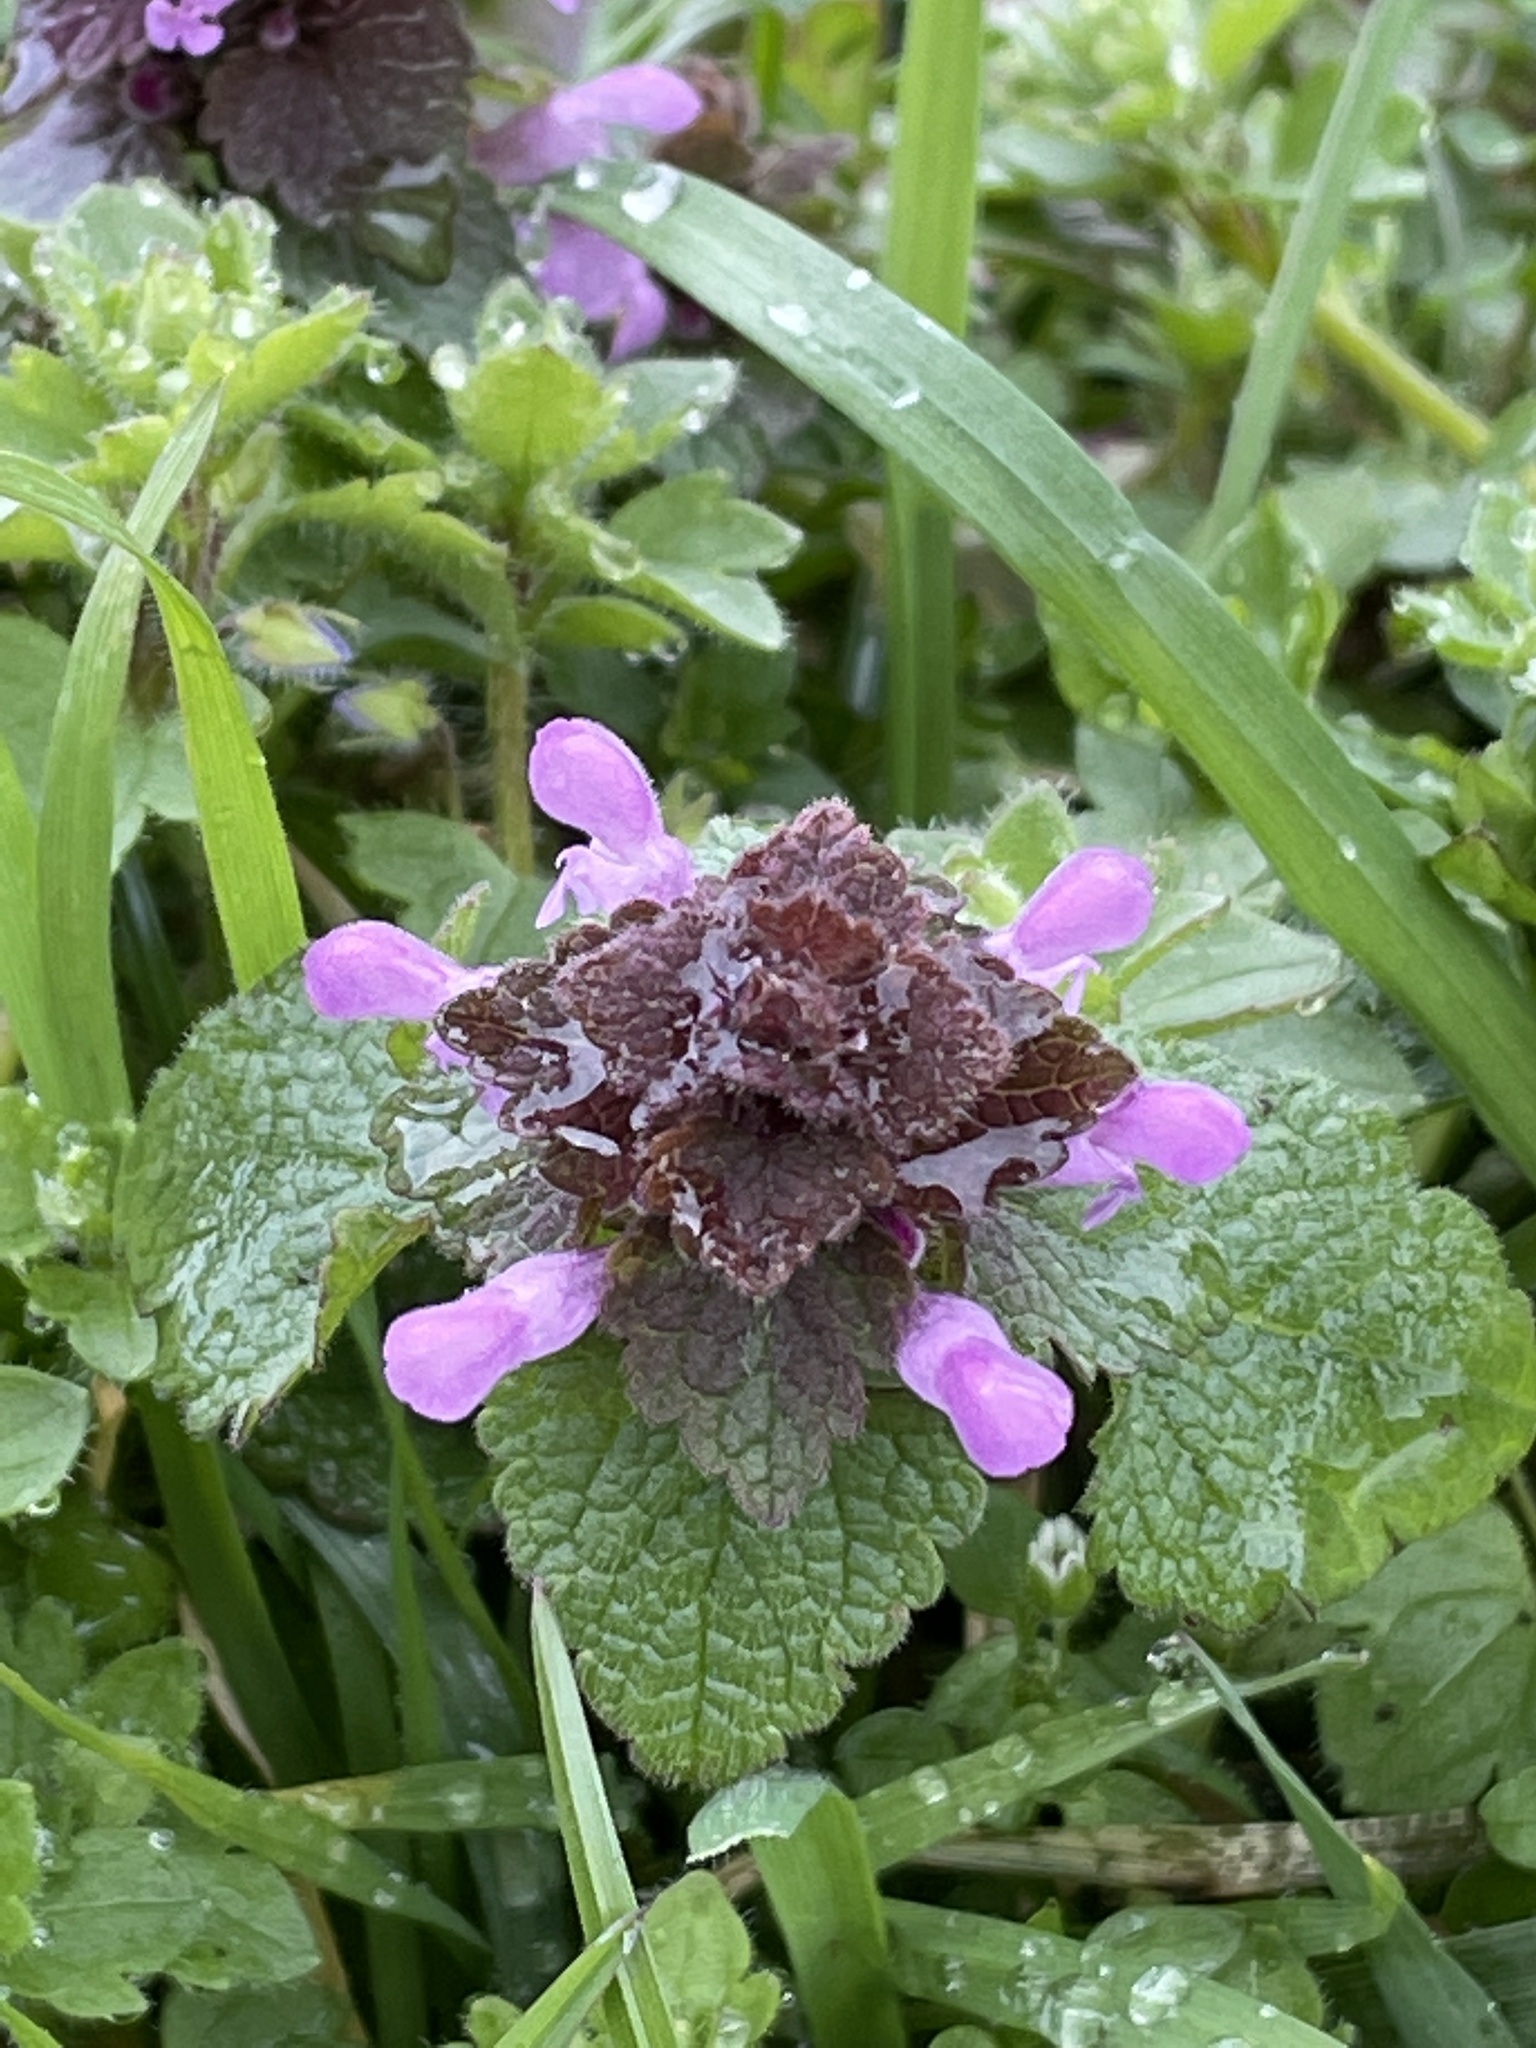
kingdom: Plantae
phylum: Tracheophyta
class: Magnoliopsida
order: Lamiales
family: Lamiaceae
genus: Lamium
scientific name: Lamium purpureum
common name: Red dead-nettle
